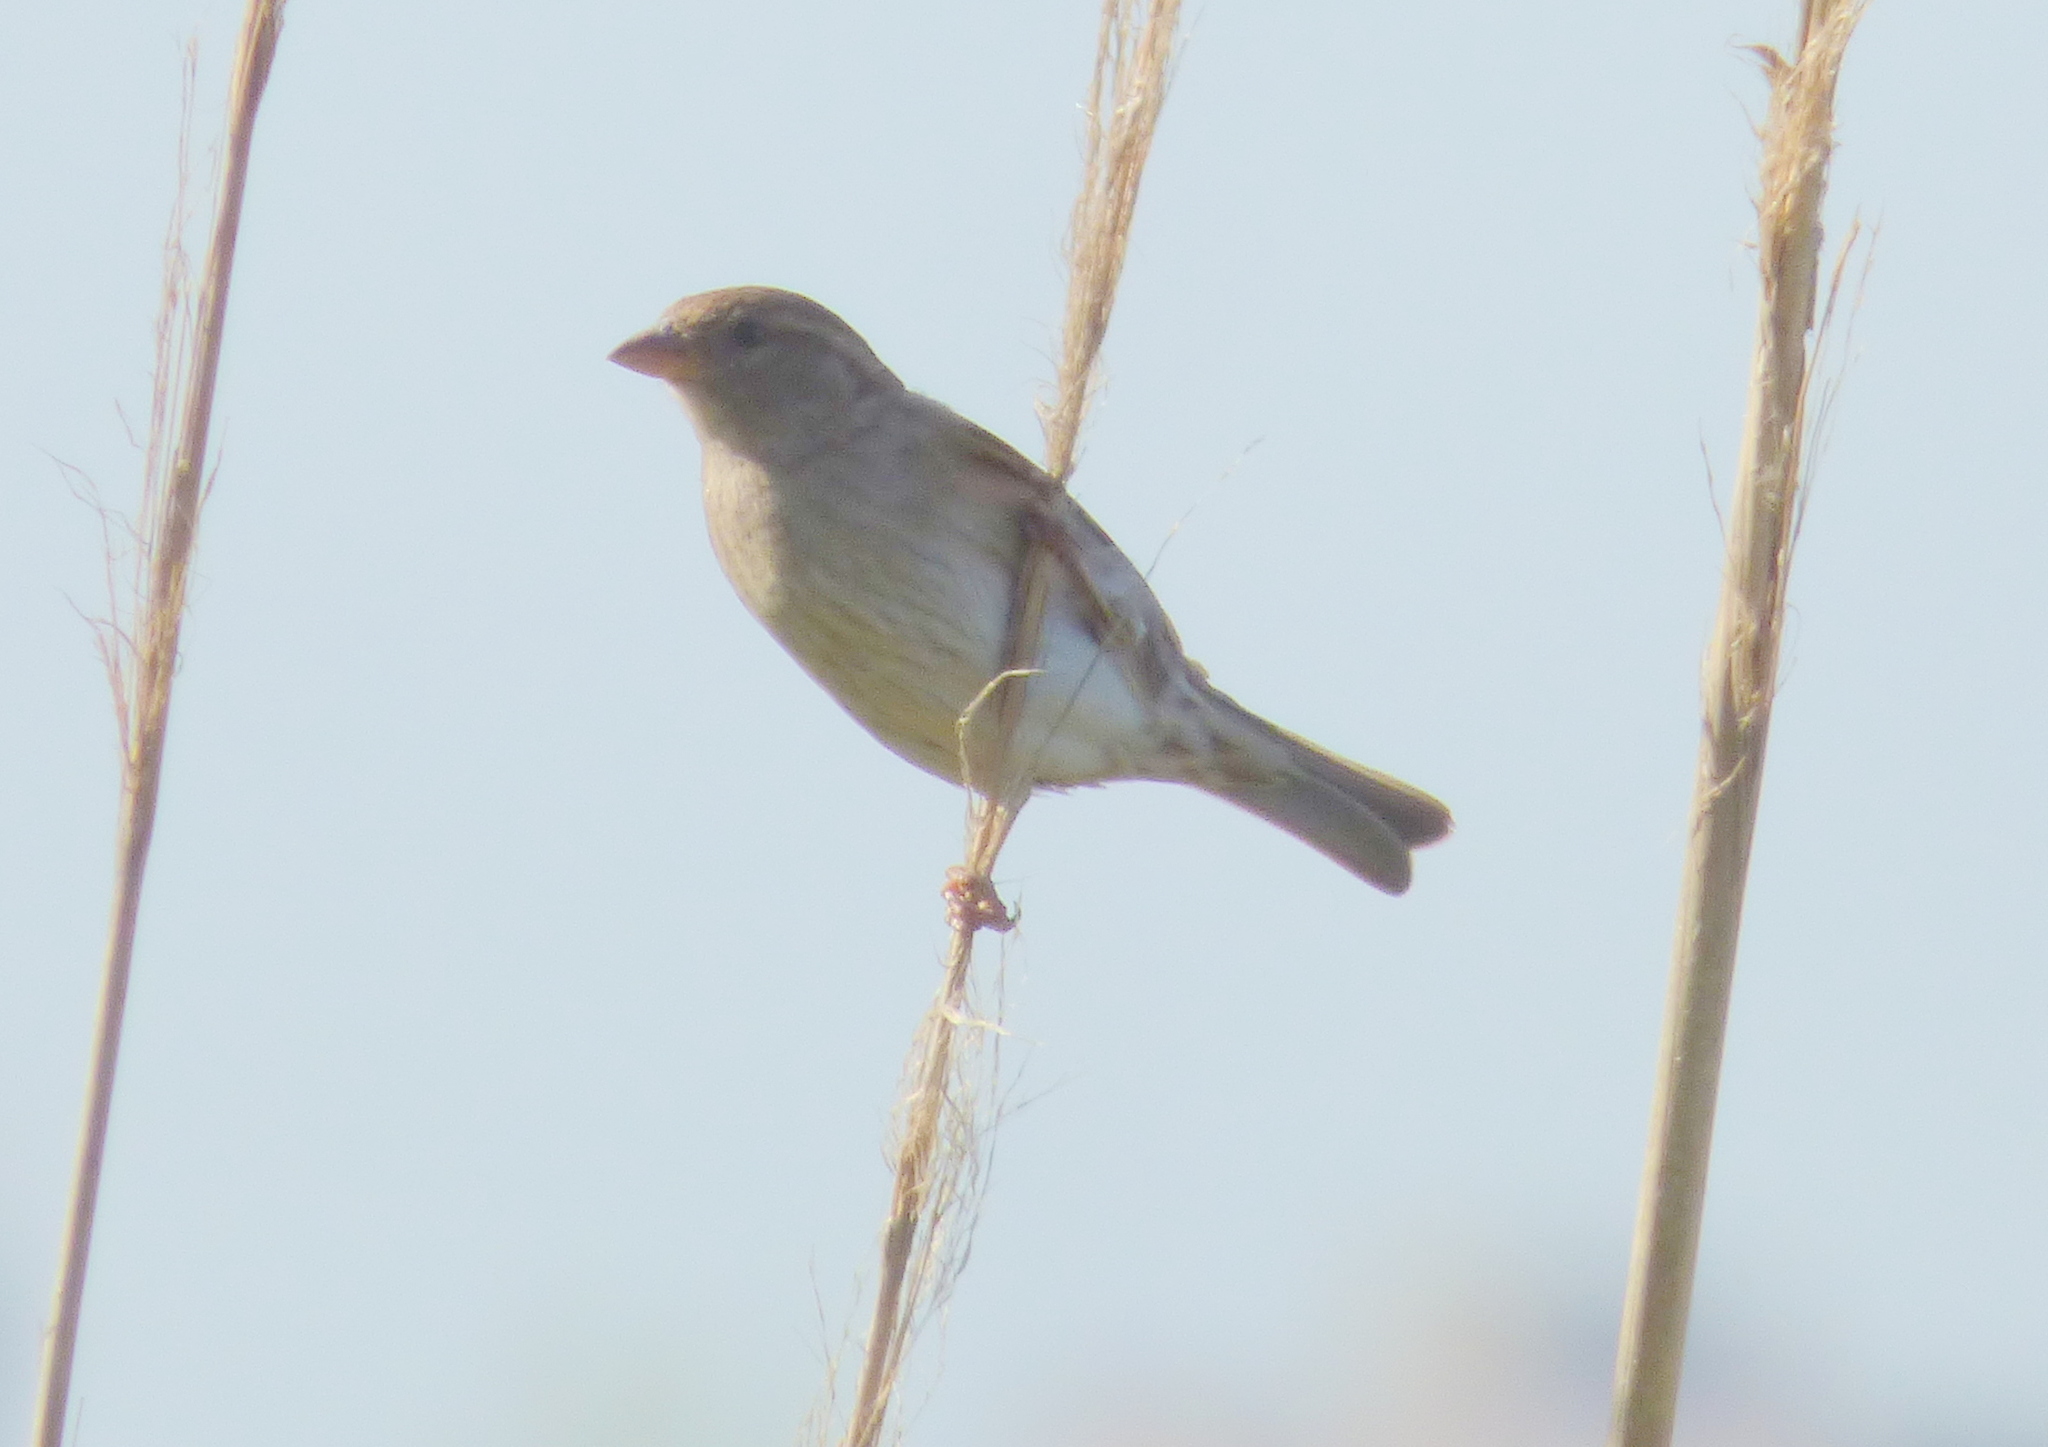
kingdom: Animalia
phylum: Chordata
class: Aves
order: Passeriformes
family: Passeridae
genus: Passer
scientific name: Passer domesticus
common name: House sparrow
